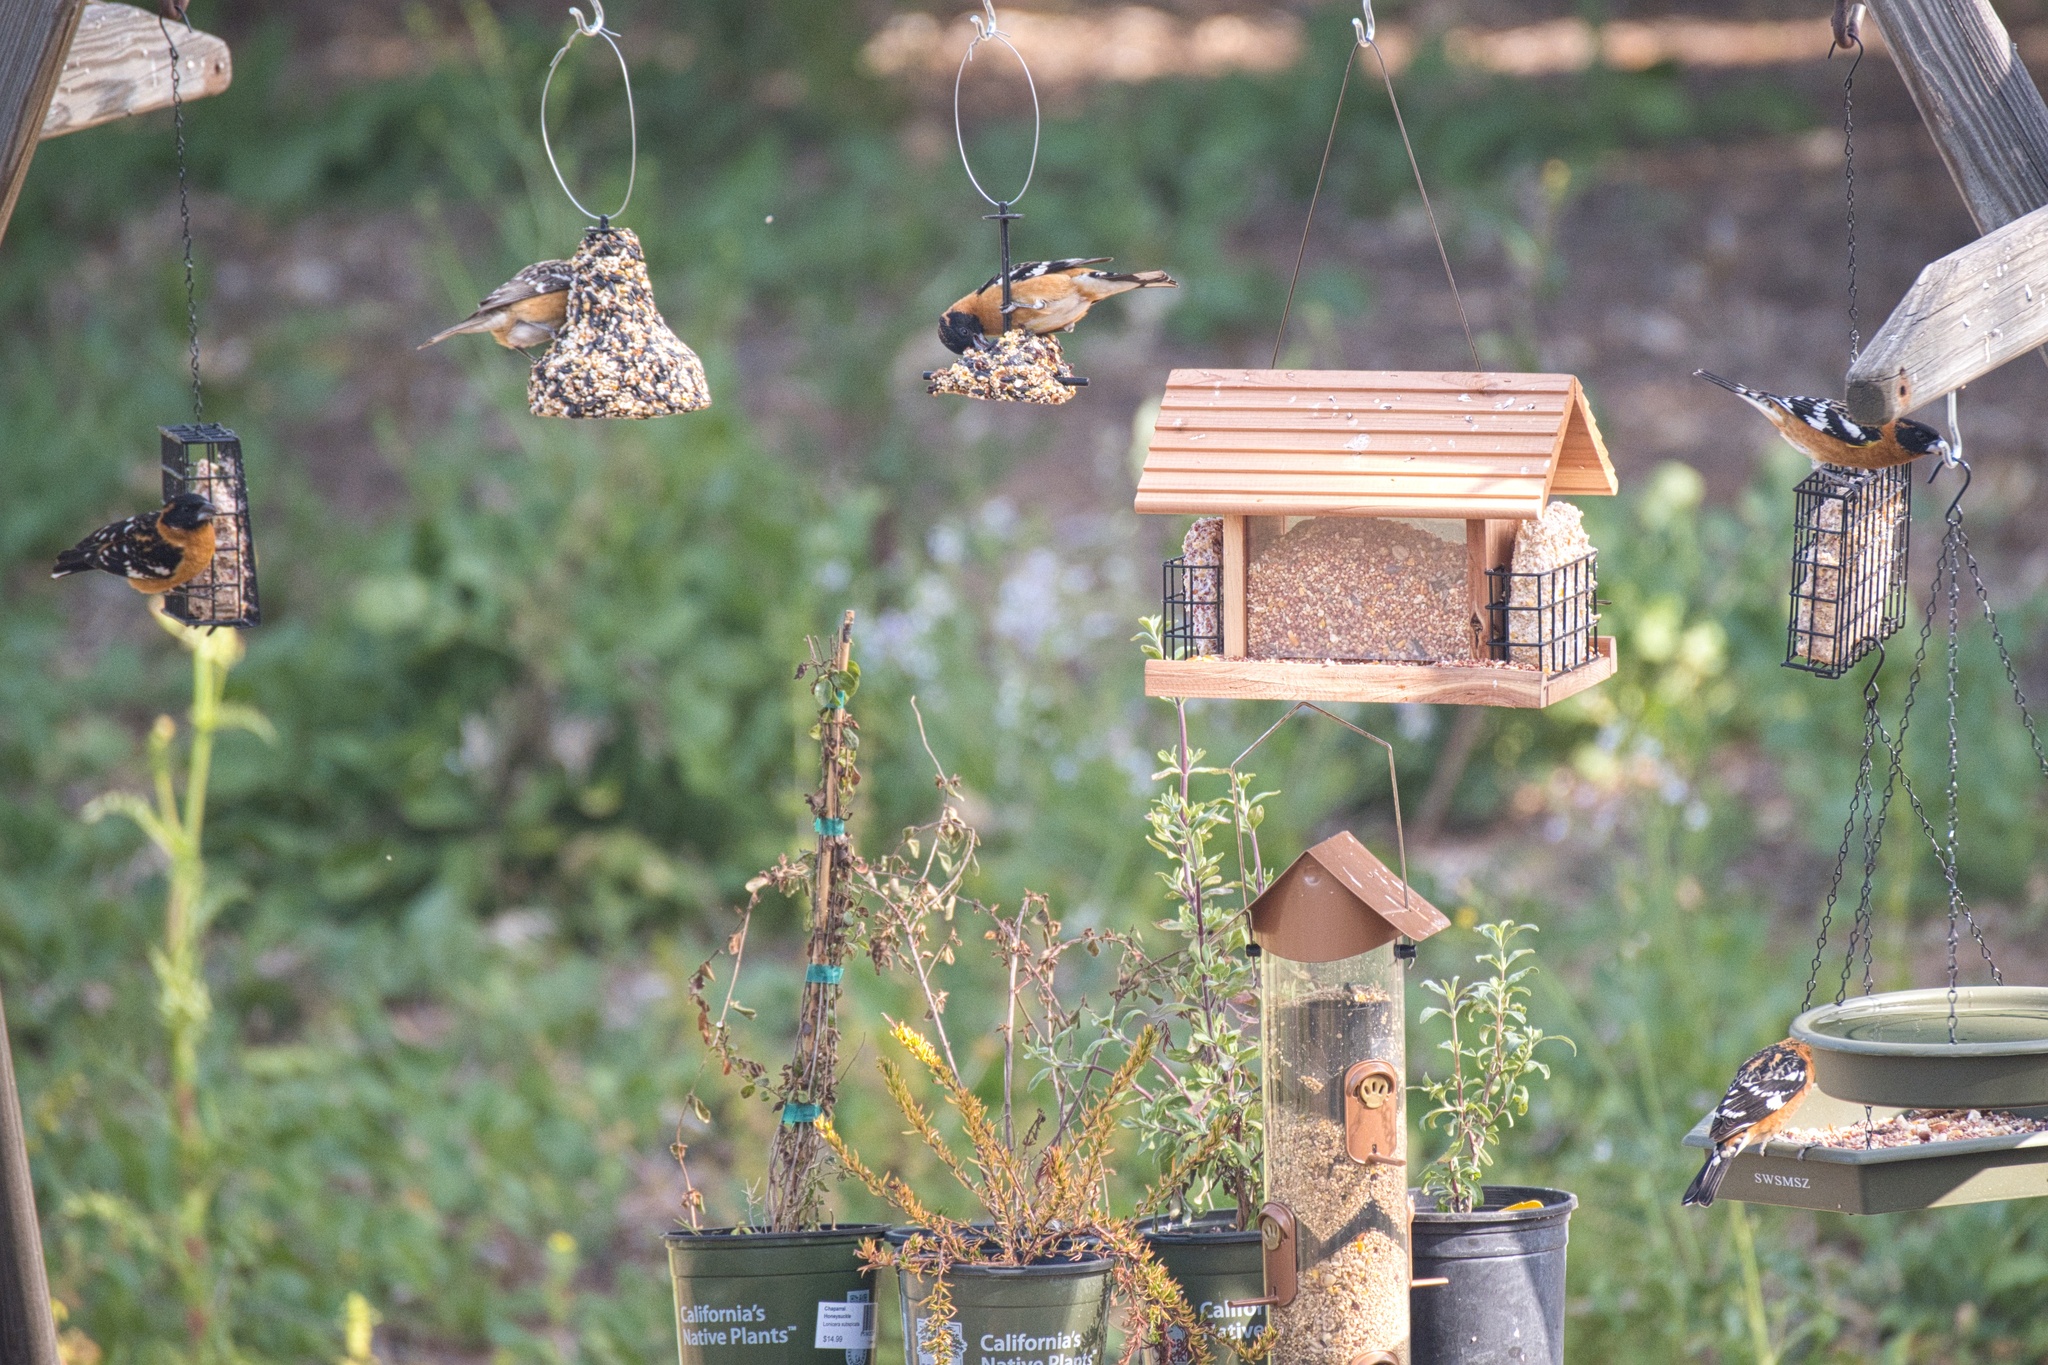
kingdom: Animalia
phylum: Chordata
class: Aves
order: Passeriformes
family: Cardinalidae
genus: Pheucticus
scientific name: Pheucticus melanocephalus
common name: Black-headed grosbeak
